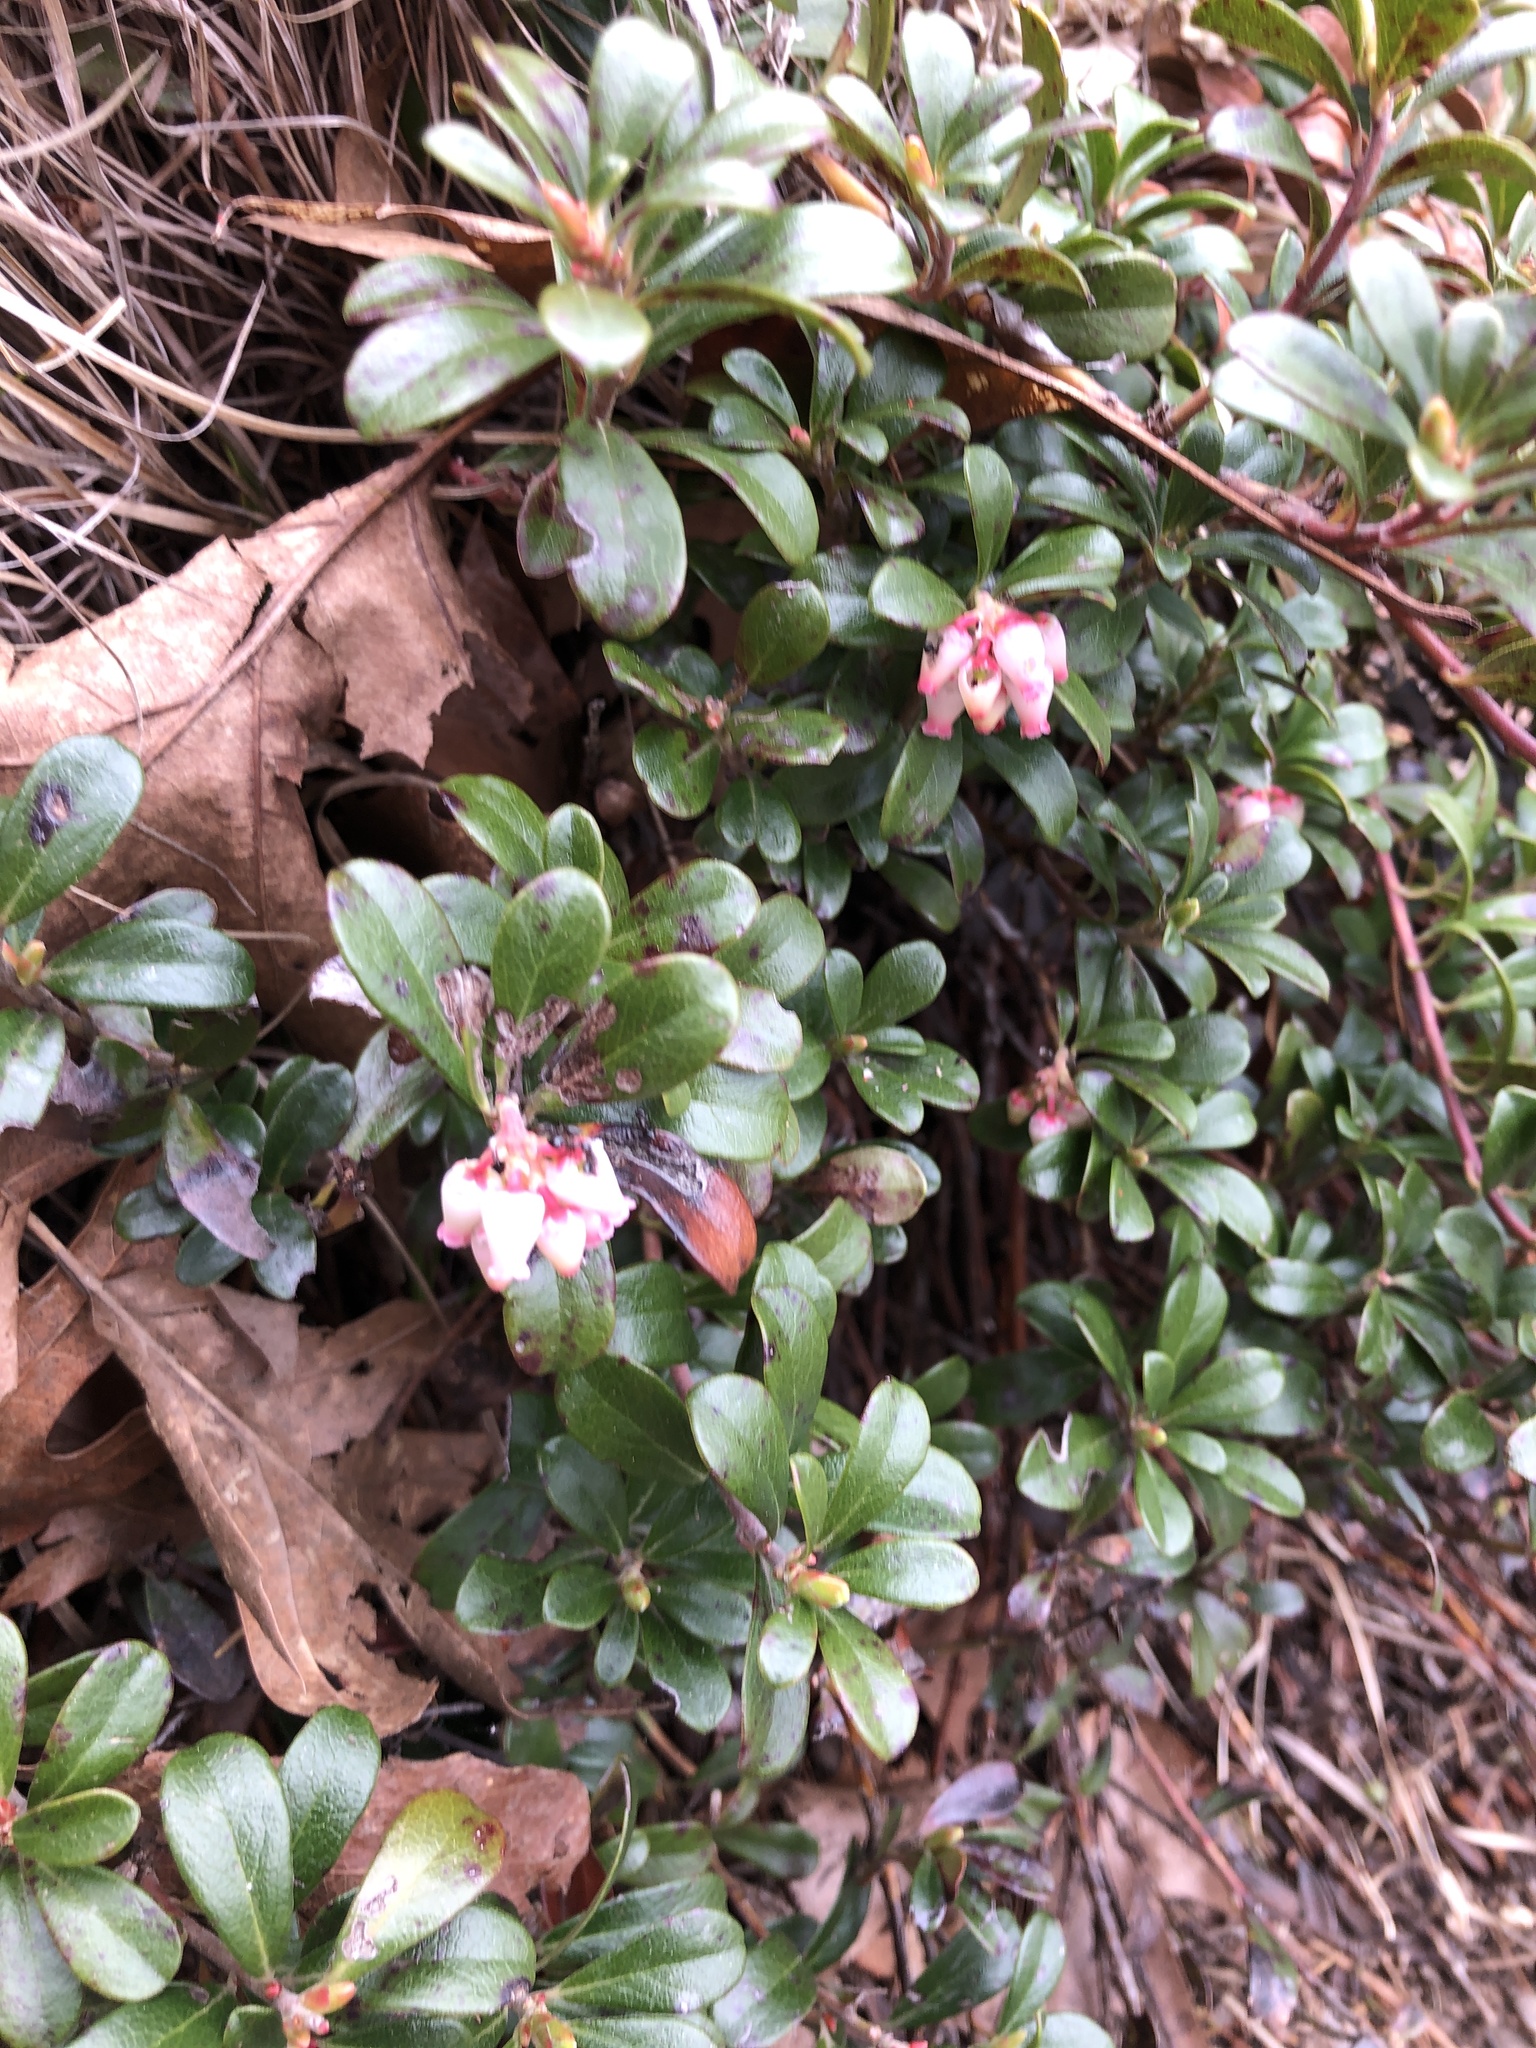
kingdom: Plantae
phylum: Tracheophyta
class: Magnoliopsida
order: Ericales
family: Ericaceae
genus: Arctostaphylos
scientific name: Arctostaphylos uva-ursi
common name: Bearberry
